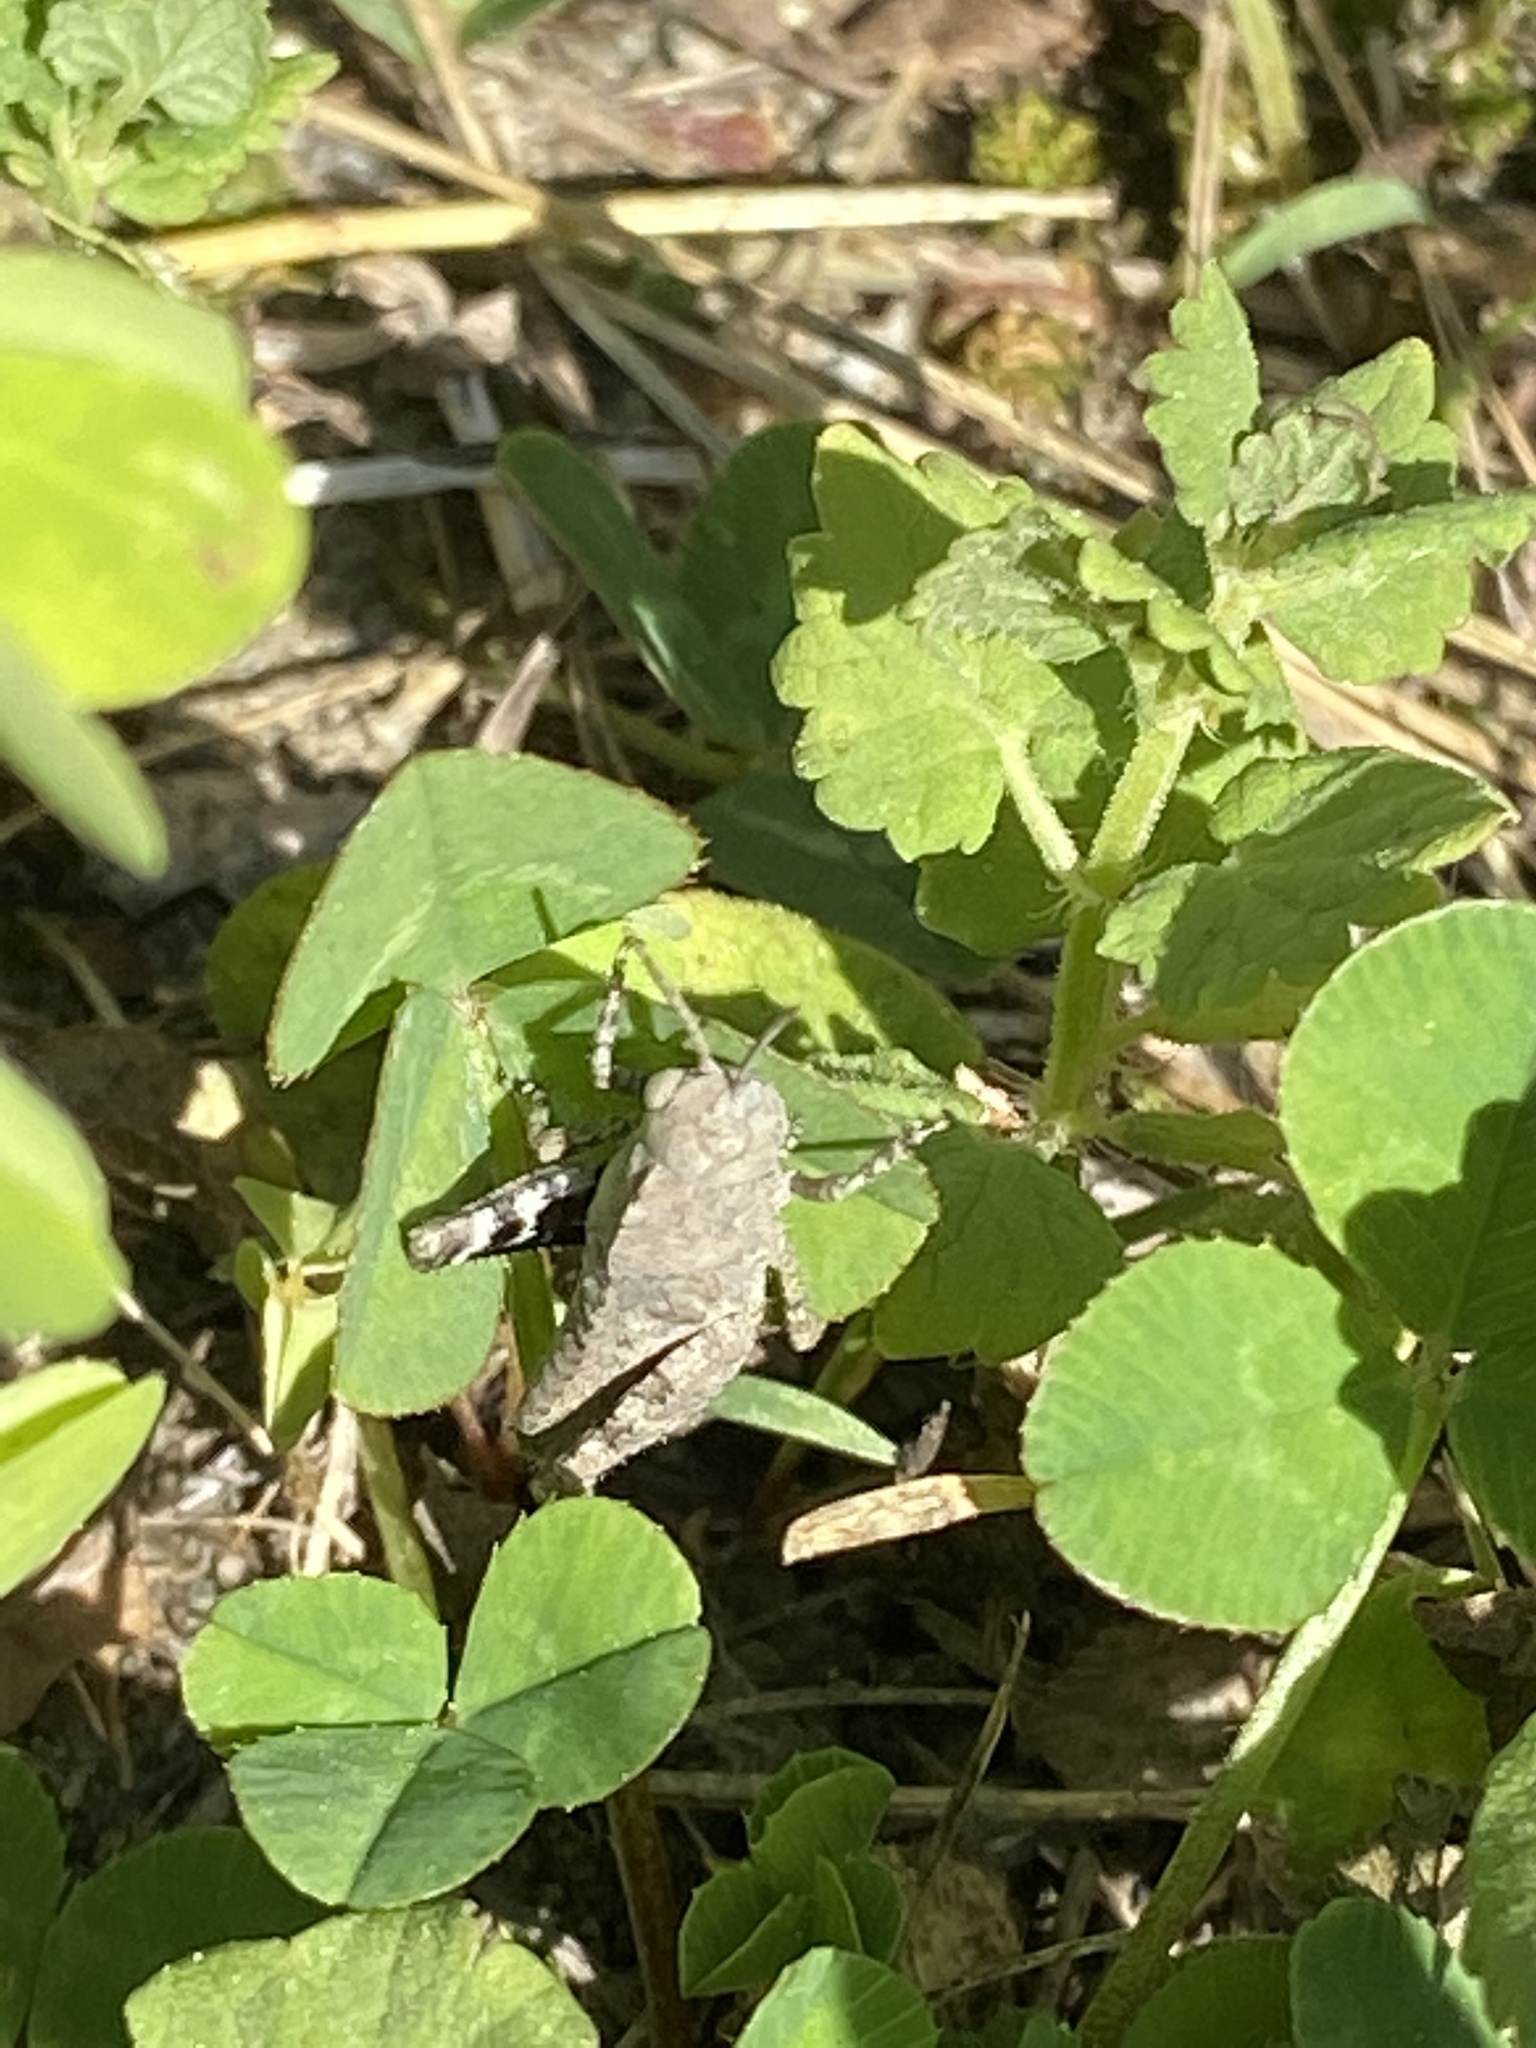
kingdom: Animalia
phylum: Arthropoda
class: Insecta
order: Orthoptera
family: Acrididae
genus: Dissosteira
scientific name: Dissosteira carolina
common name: Carolina grasshopper
